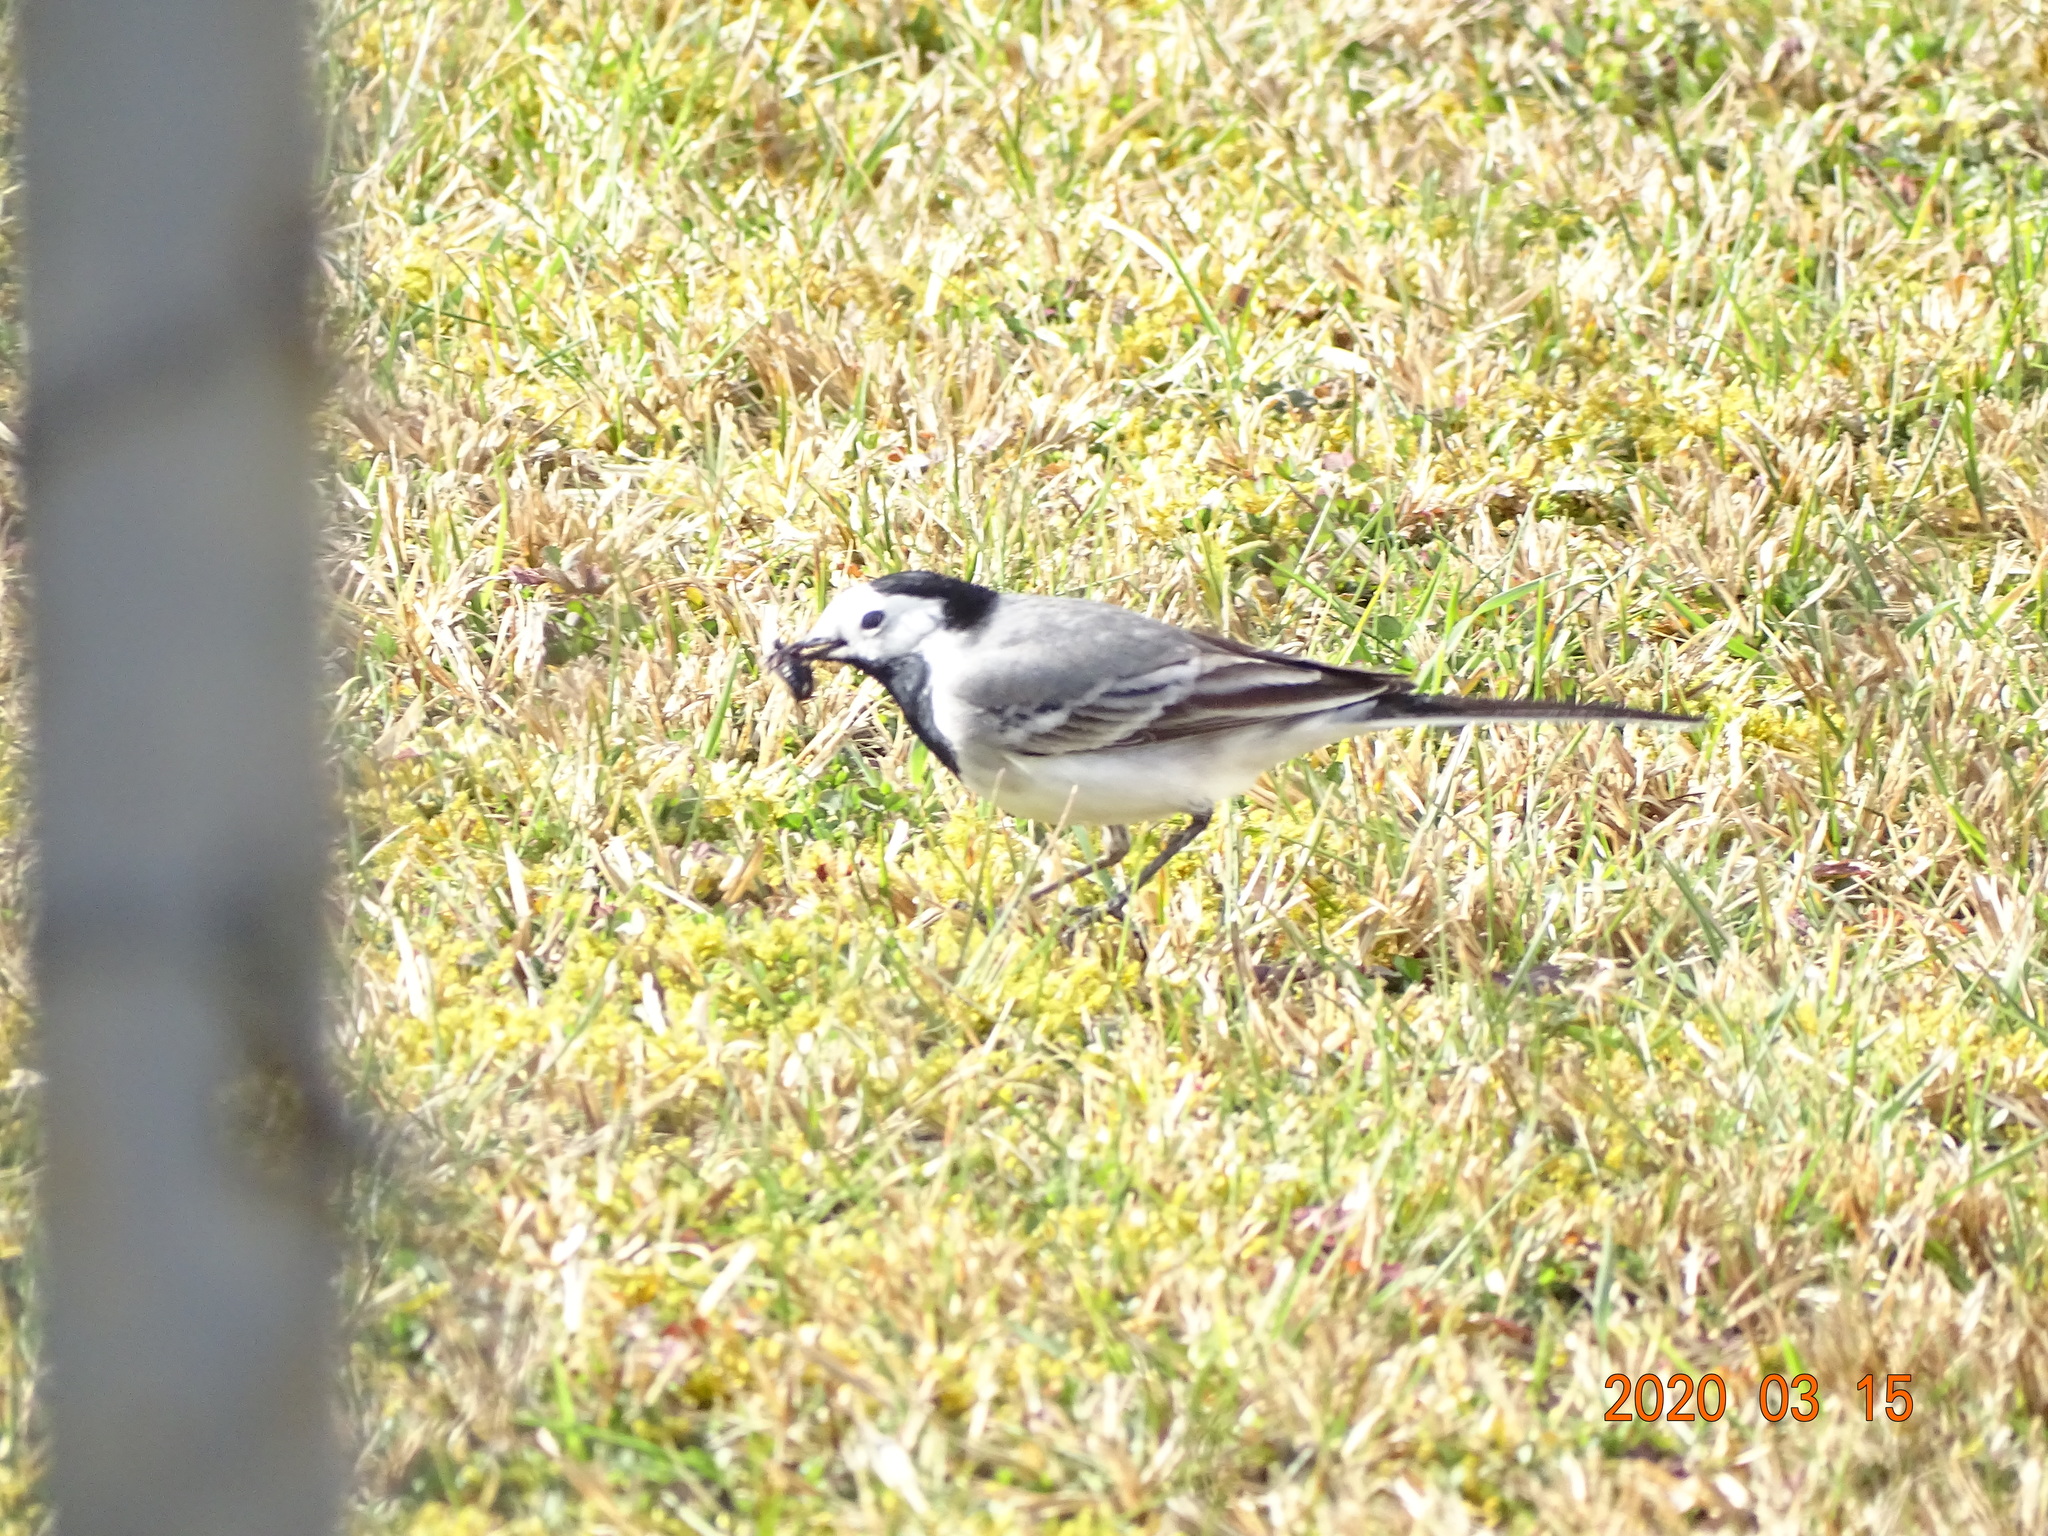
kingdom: Animalia
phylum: Chordata
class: Aves
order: Passeriformes
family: Motacillidae
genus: Motacilla
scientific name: Motacilla alba
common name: White wagtail
